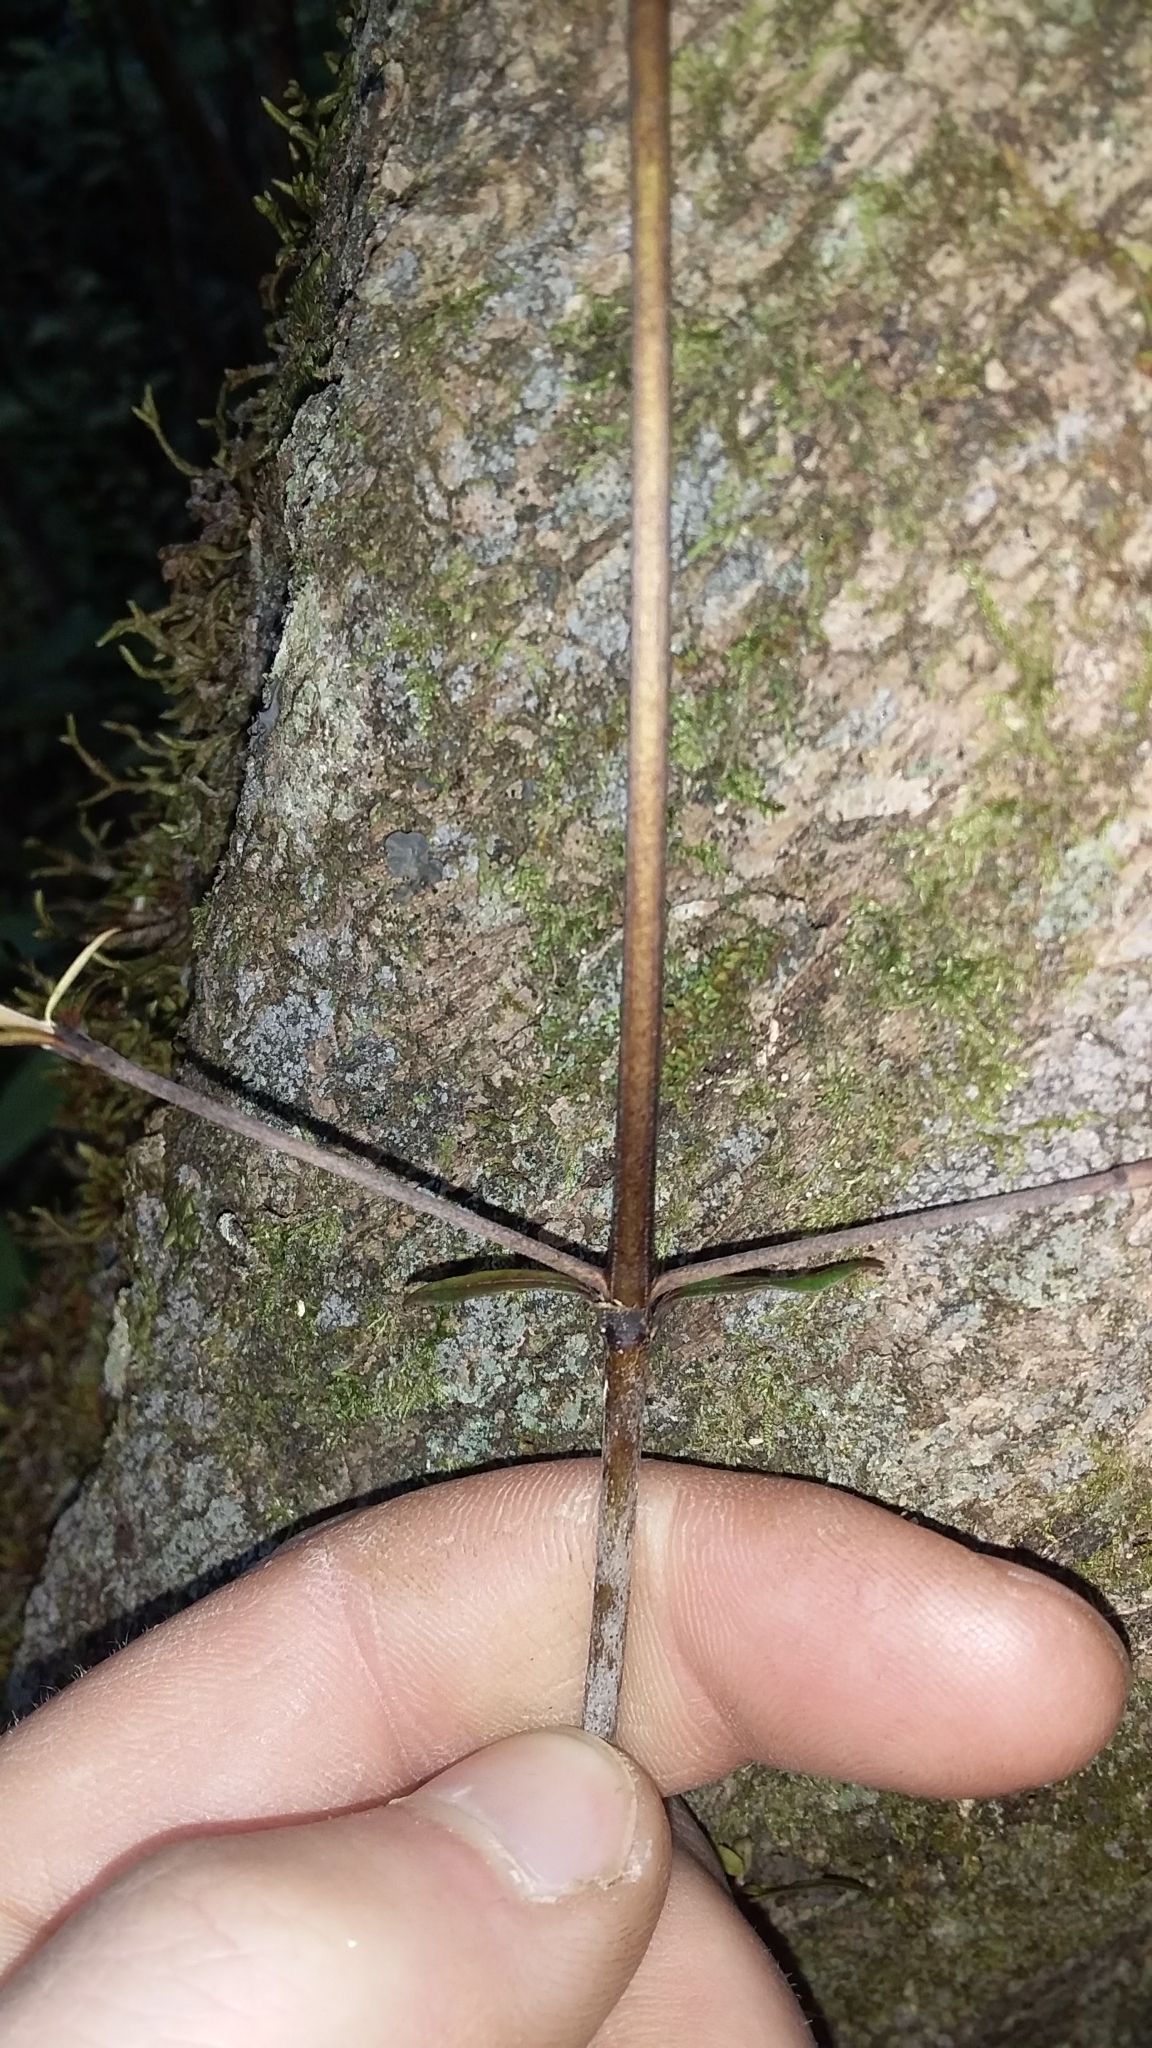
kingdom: Plantae
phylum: Tracheophyta
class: Magnoliopsida
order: Gentianales
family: Rubiaceae
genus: Coprosma
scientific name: Coprosma linariifolia
